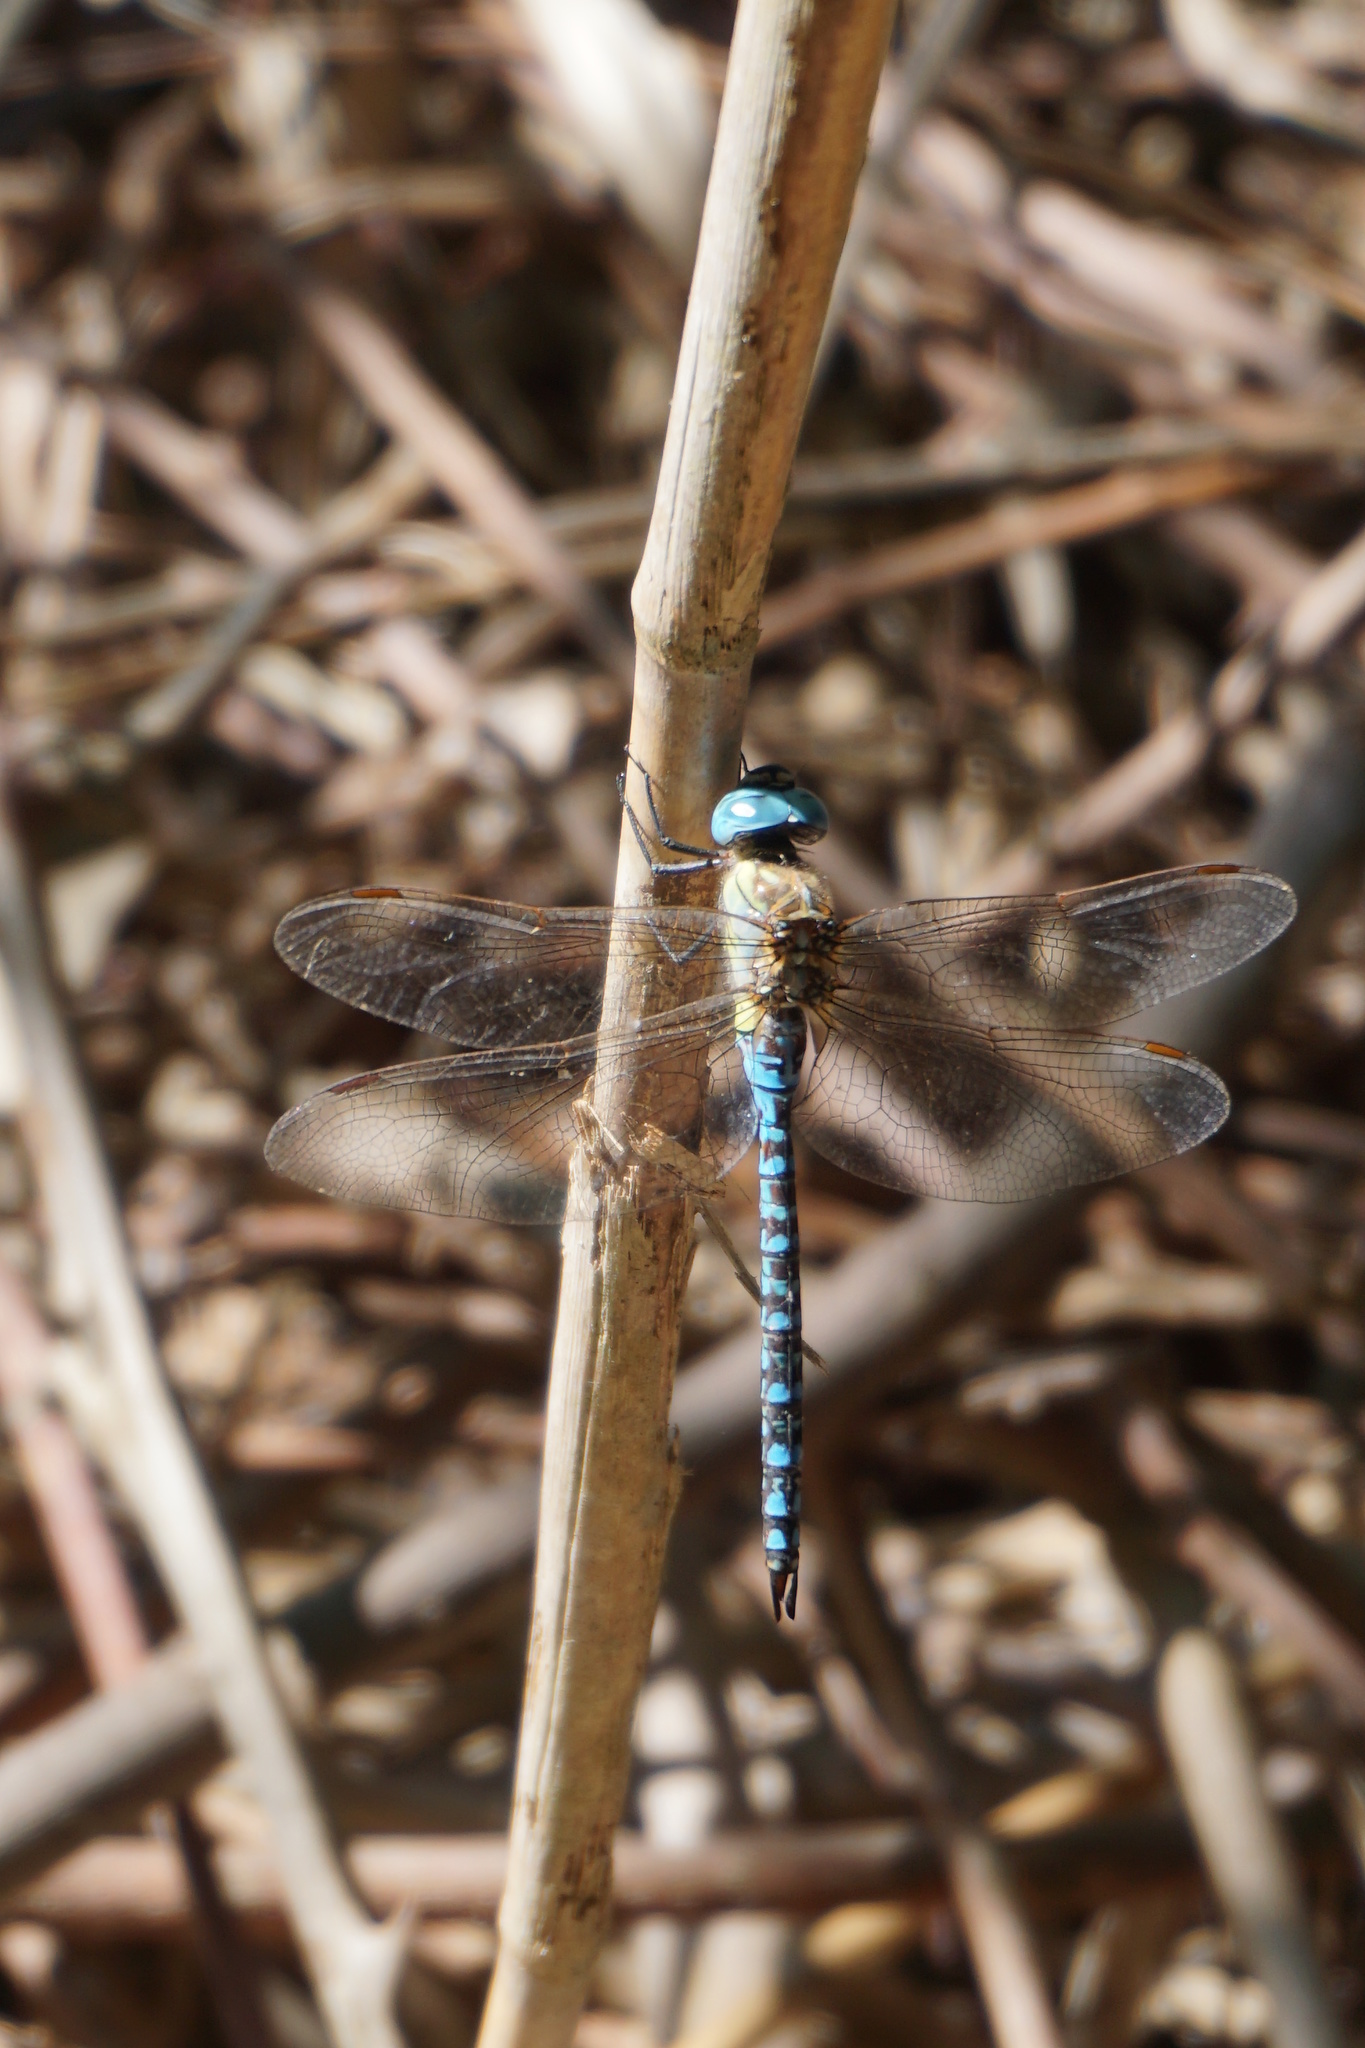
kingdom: Animalia
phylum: Arthropoda
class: Insecta
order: Odonata
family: Aeshnidae
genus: Aeshna
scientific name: Aeshna affinis
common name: Southern migrant hawker
